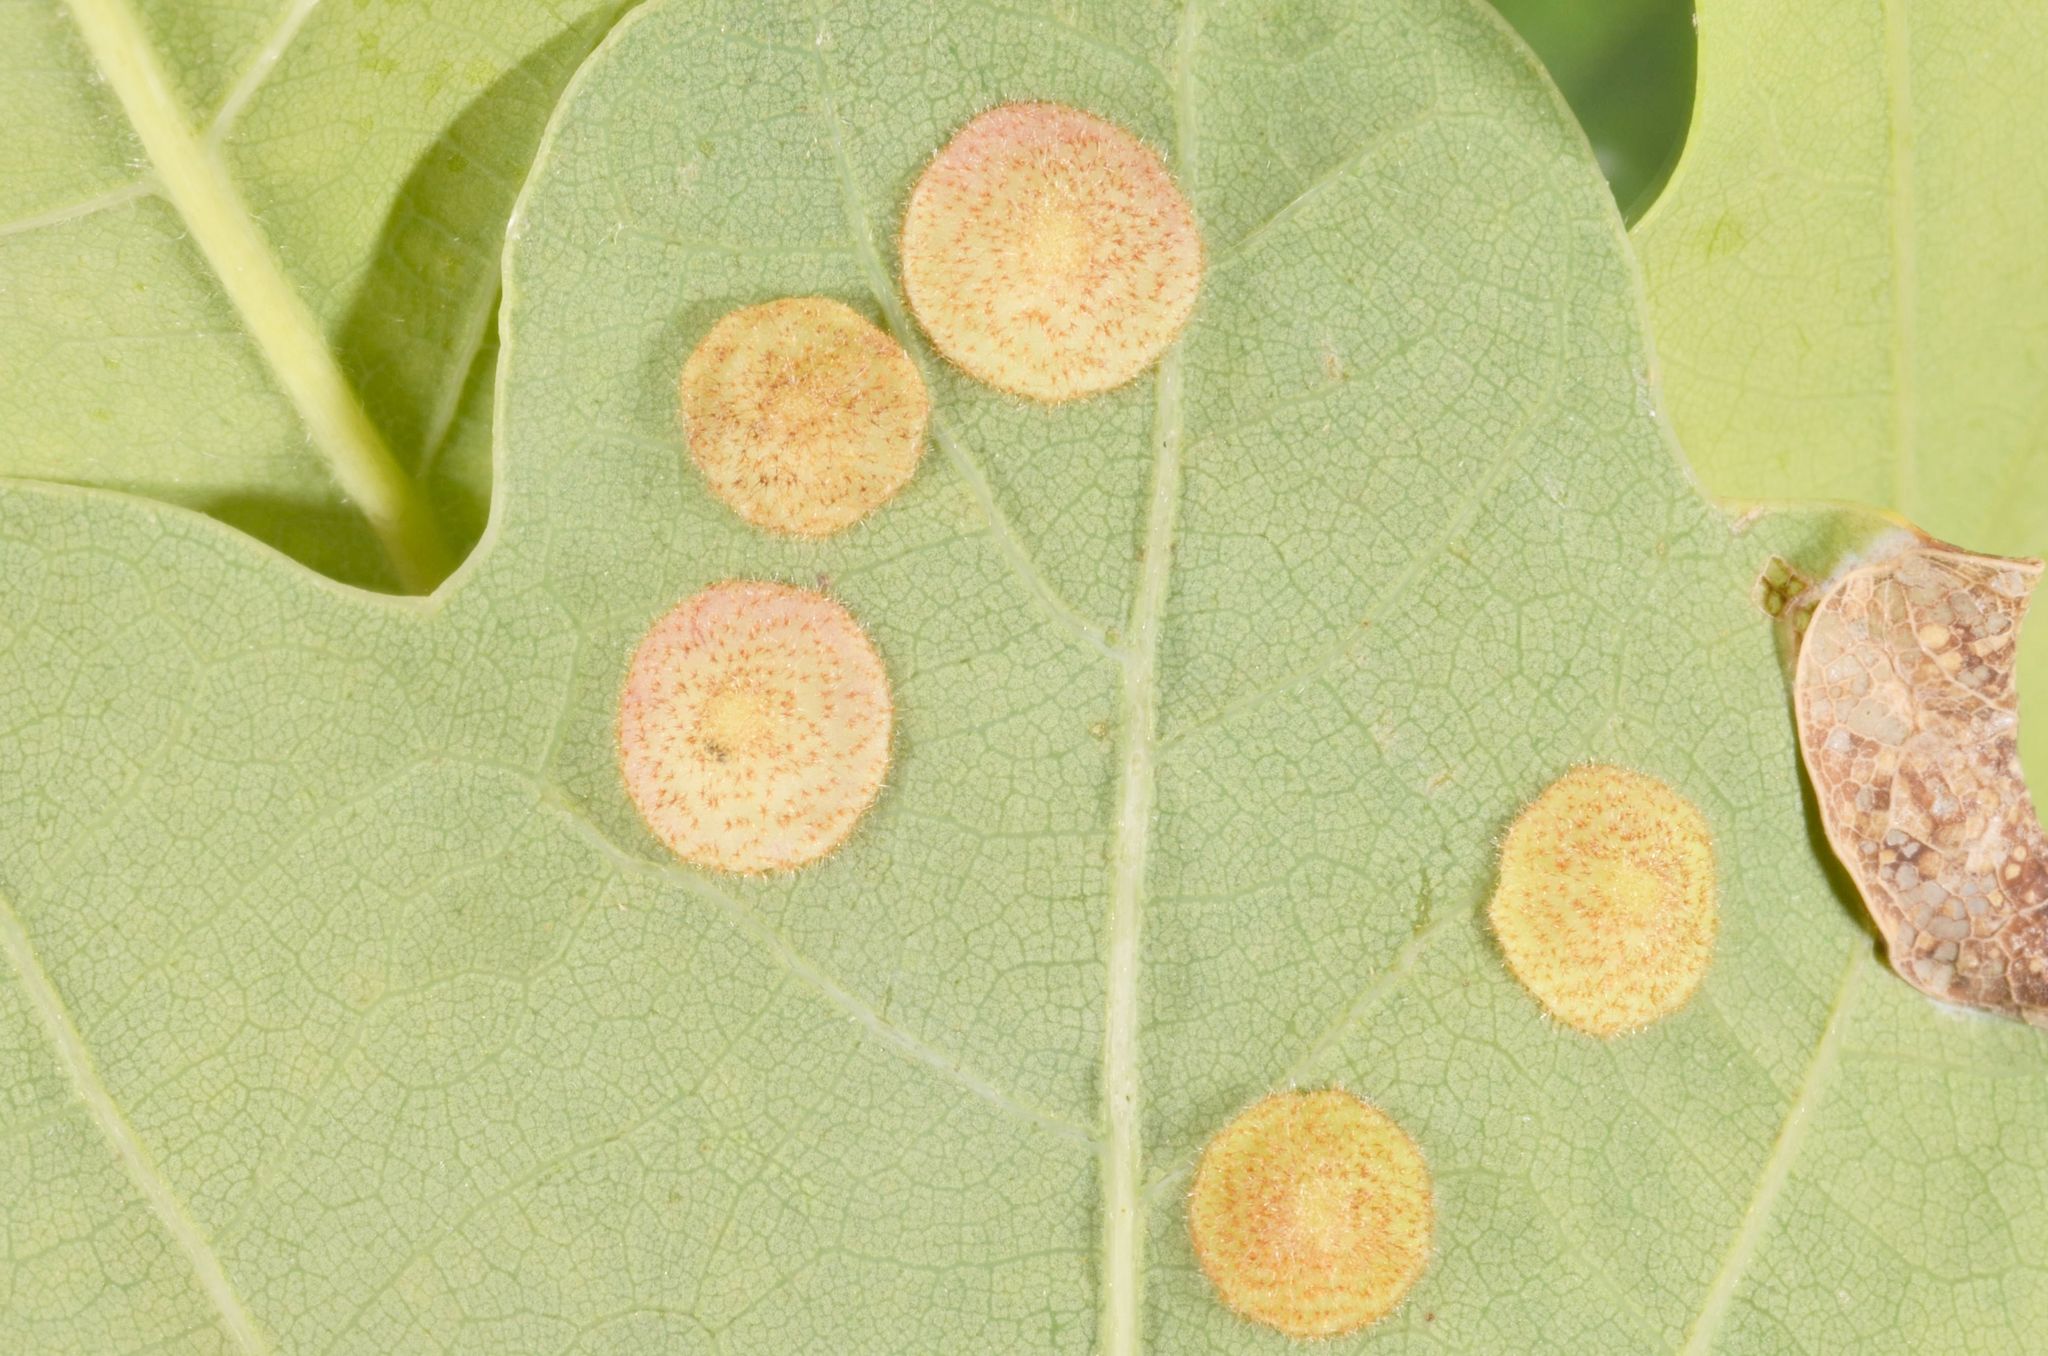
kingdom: Animalia
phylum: Arthropoda
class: Insecta
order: Hymenoptera
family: Cynipidae
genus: Neuroterus
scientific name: Neuroterus quercusbaccarum
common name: Common spangle gall
